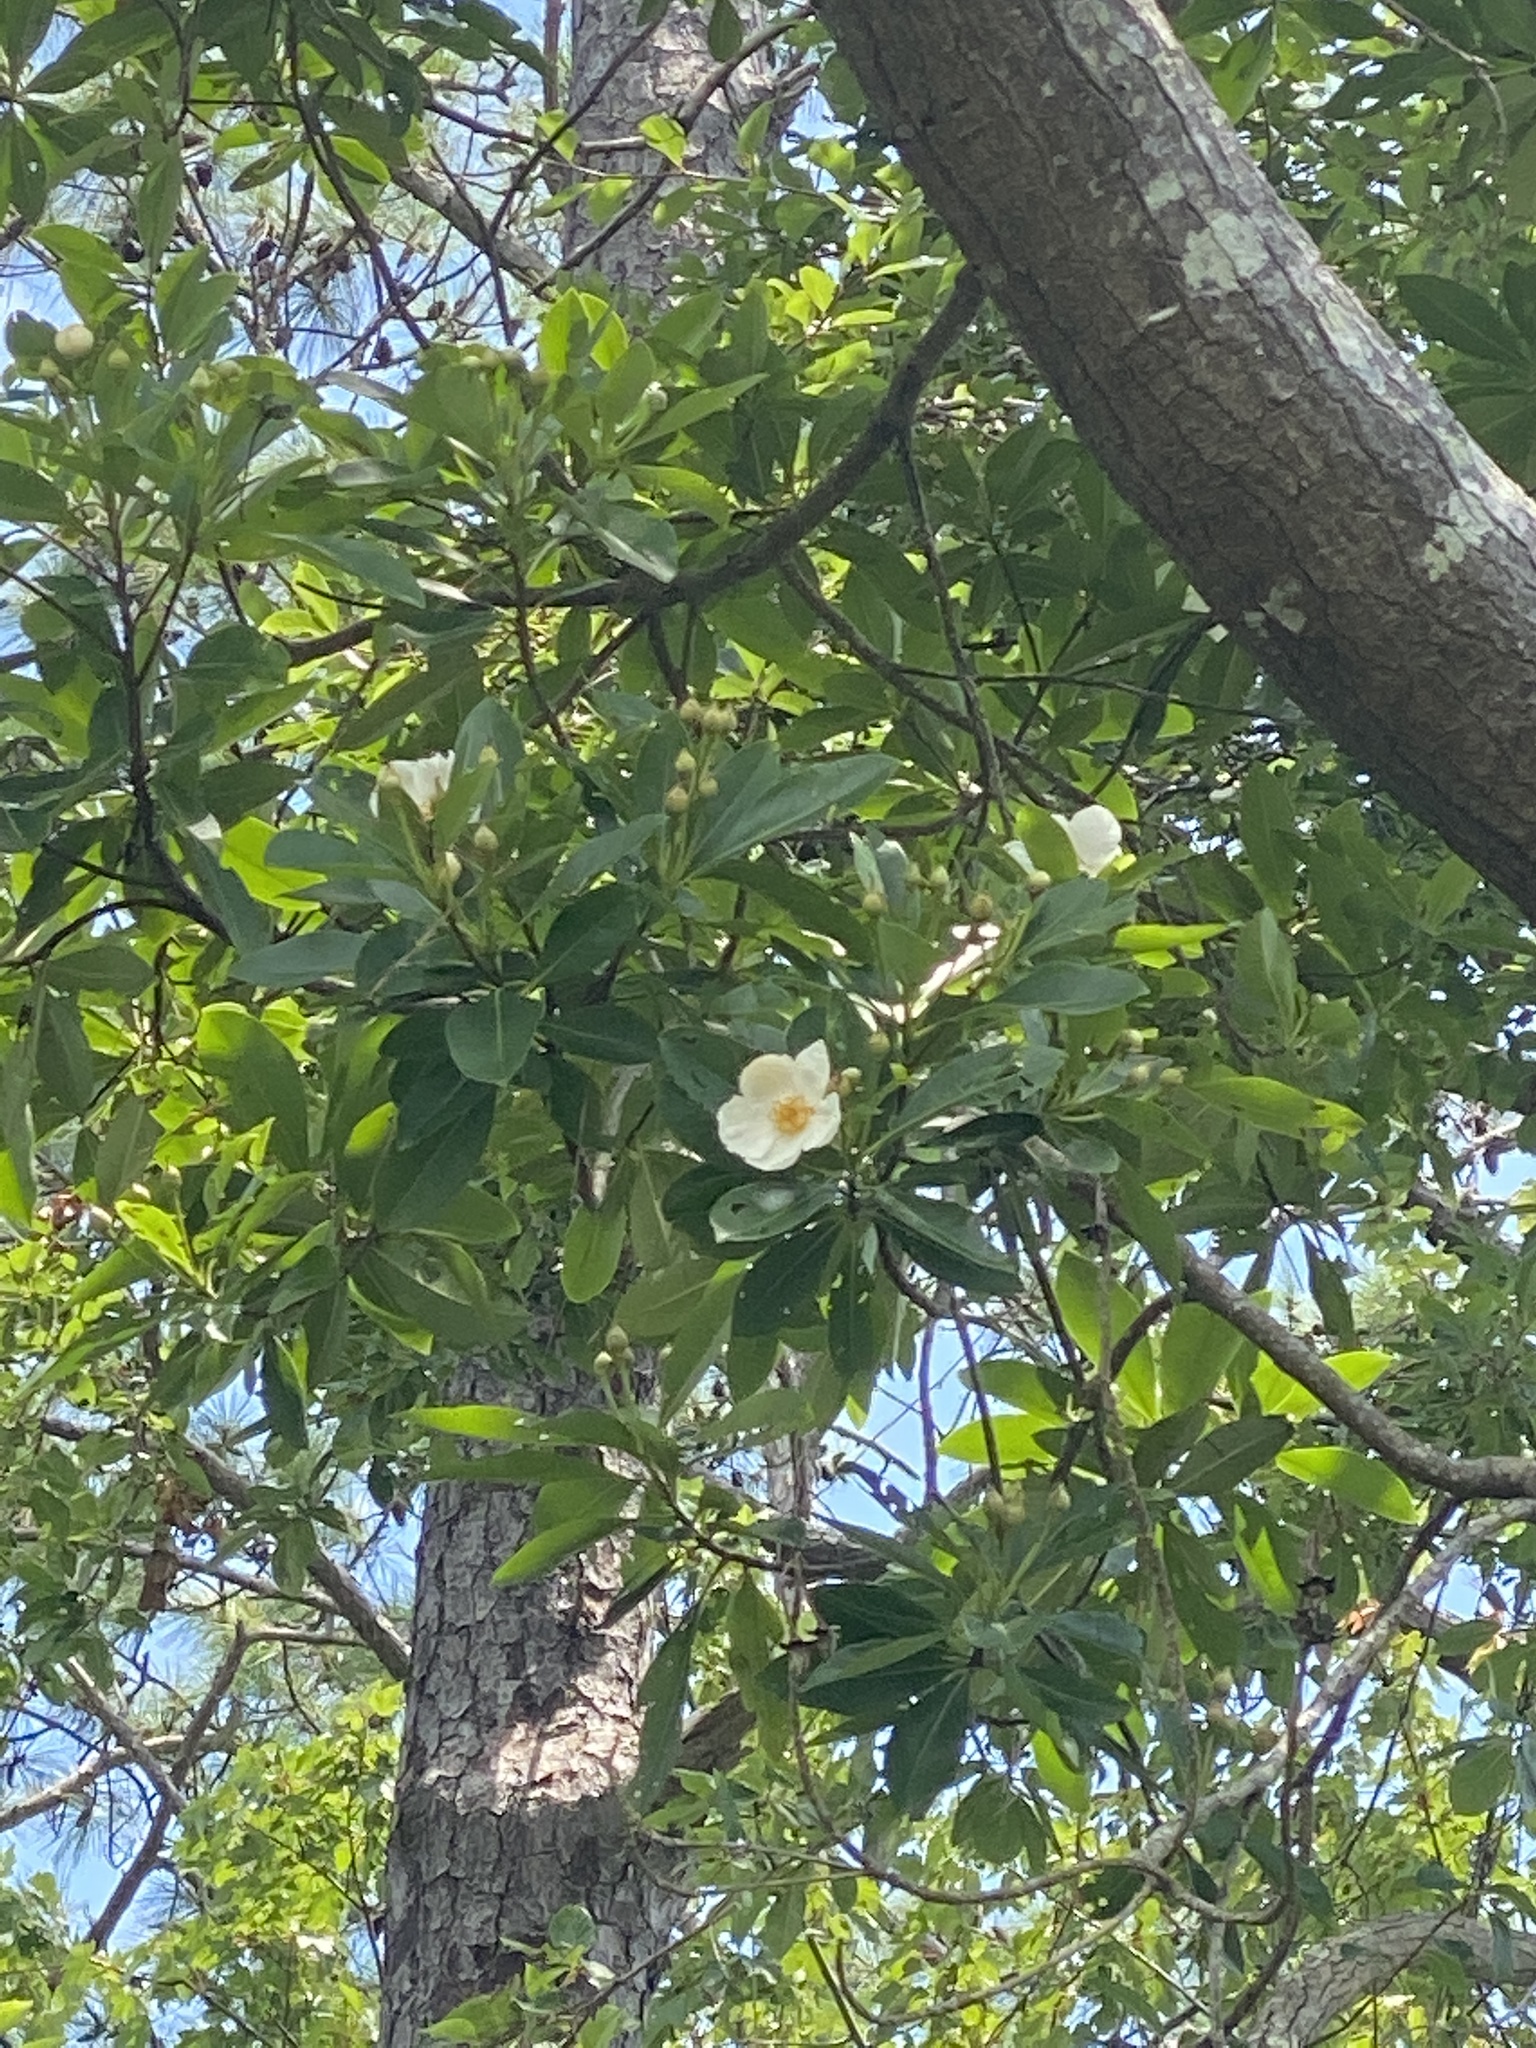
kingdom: Plantae
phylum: Tracheophyta
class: Magnoliopsida
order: Ericales
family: Theaceae
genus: Gordonia
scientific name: Gordonia lasianthus
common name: Loblolly bay
